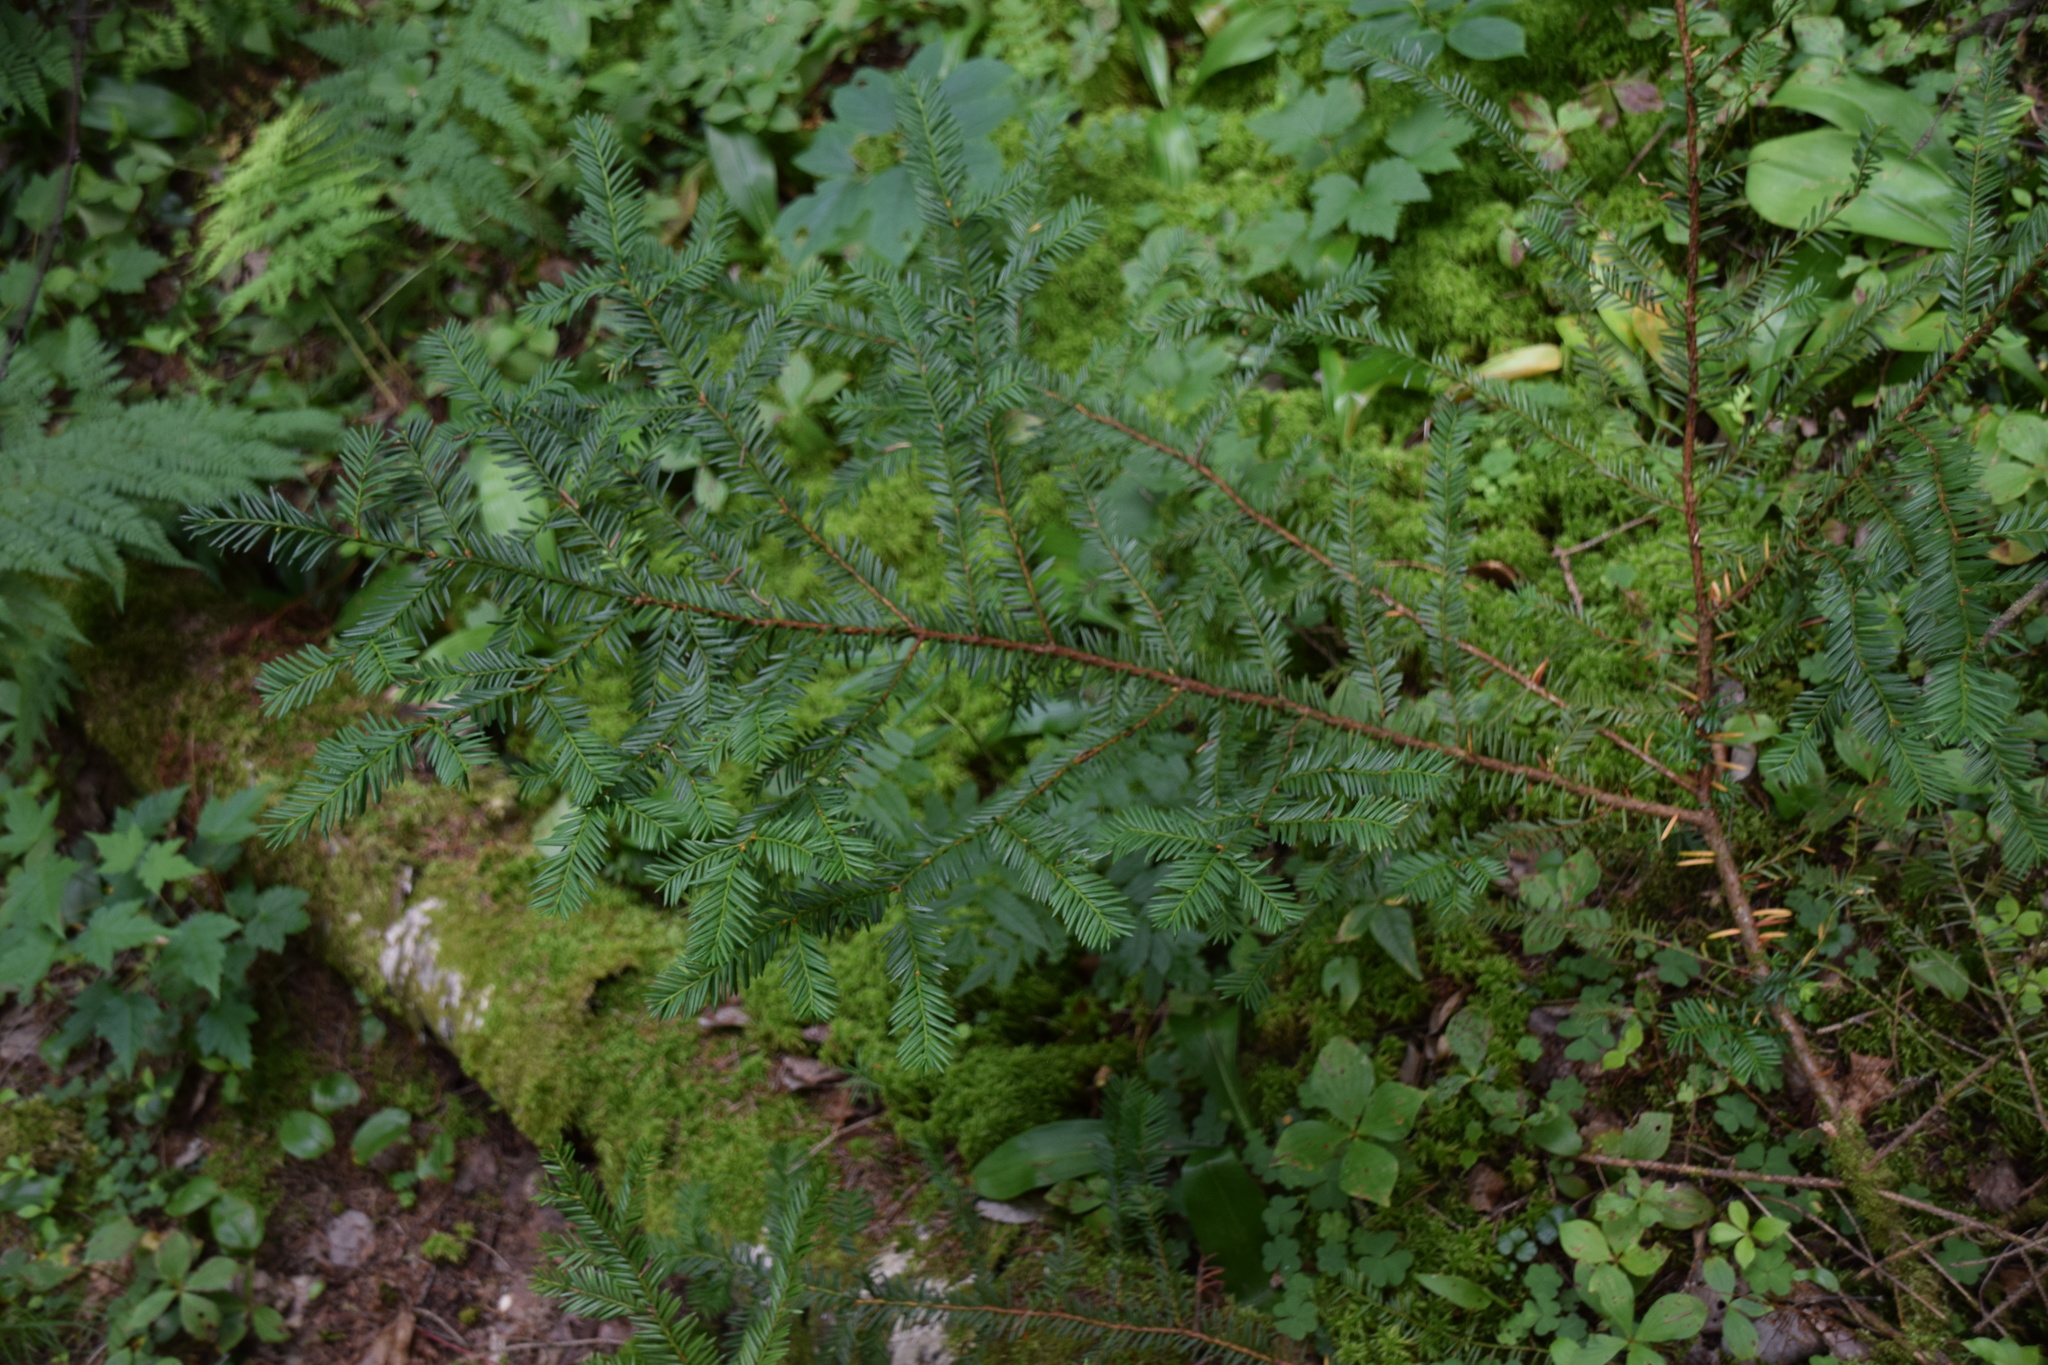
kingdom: Plantae
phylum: Tracheophyta
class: Pinopsida
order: Pinales
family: Taxaceae
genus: Taxus
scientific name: Taxus canadensis
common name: American yew
